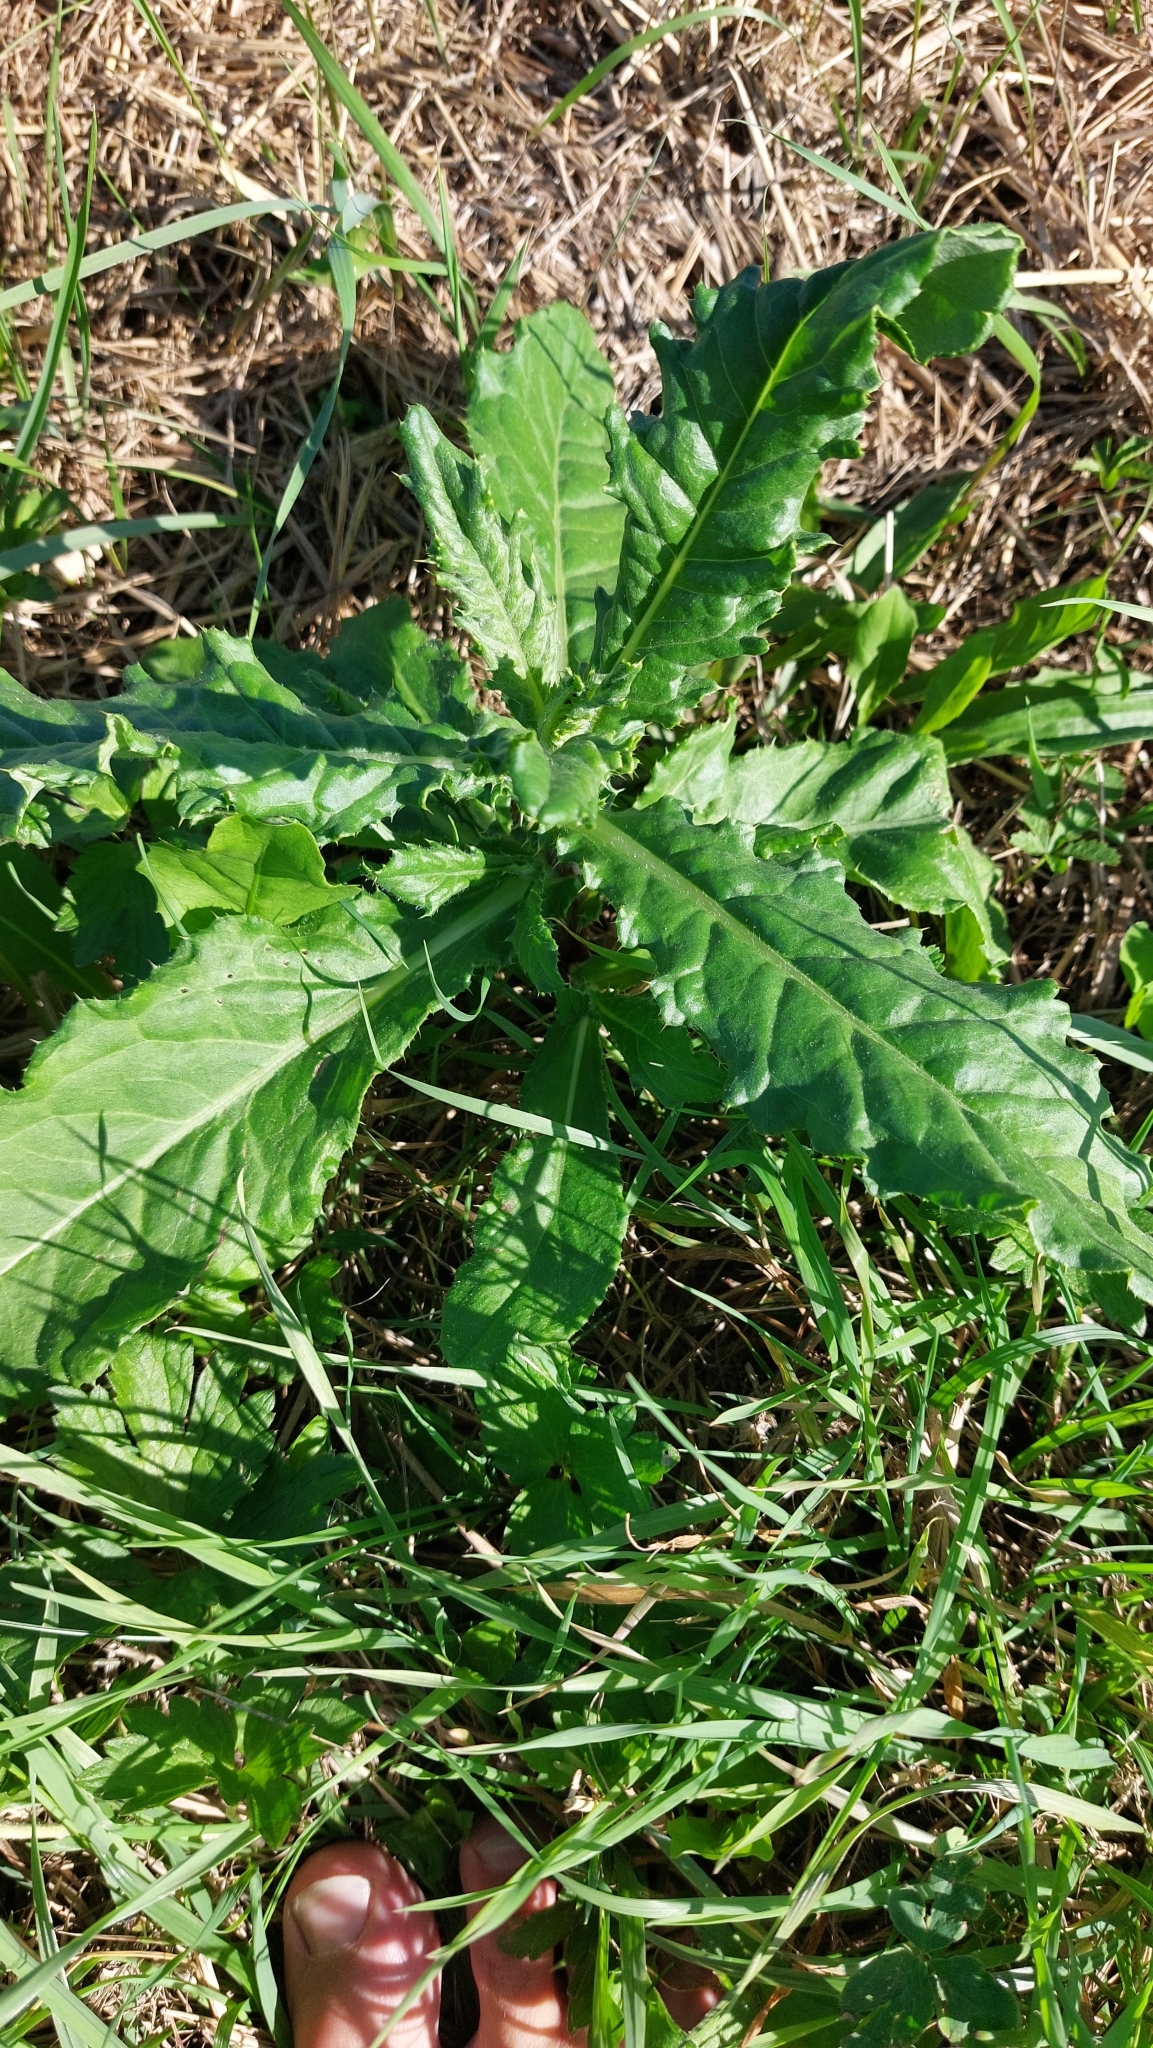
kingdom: Plantae
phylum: Tracheophyta
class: Magnoliopsida
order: Asterales
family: Asteraceae
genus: Cirsium
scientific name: Cirsium arvense
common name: Creeping thistle
